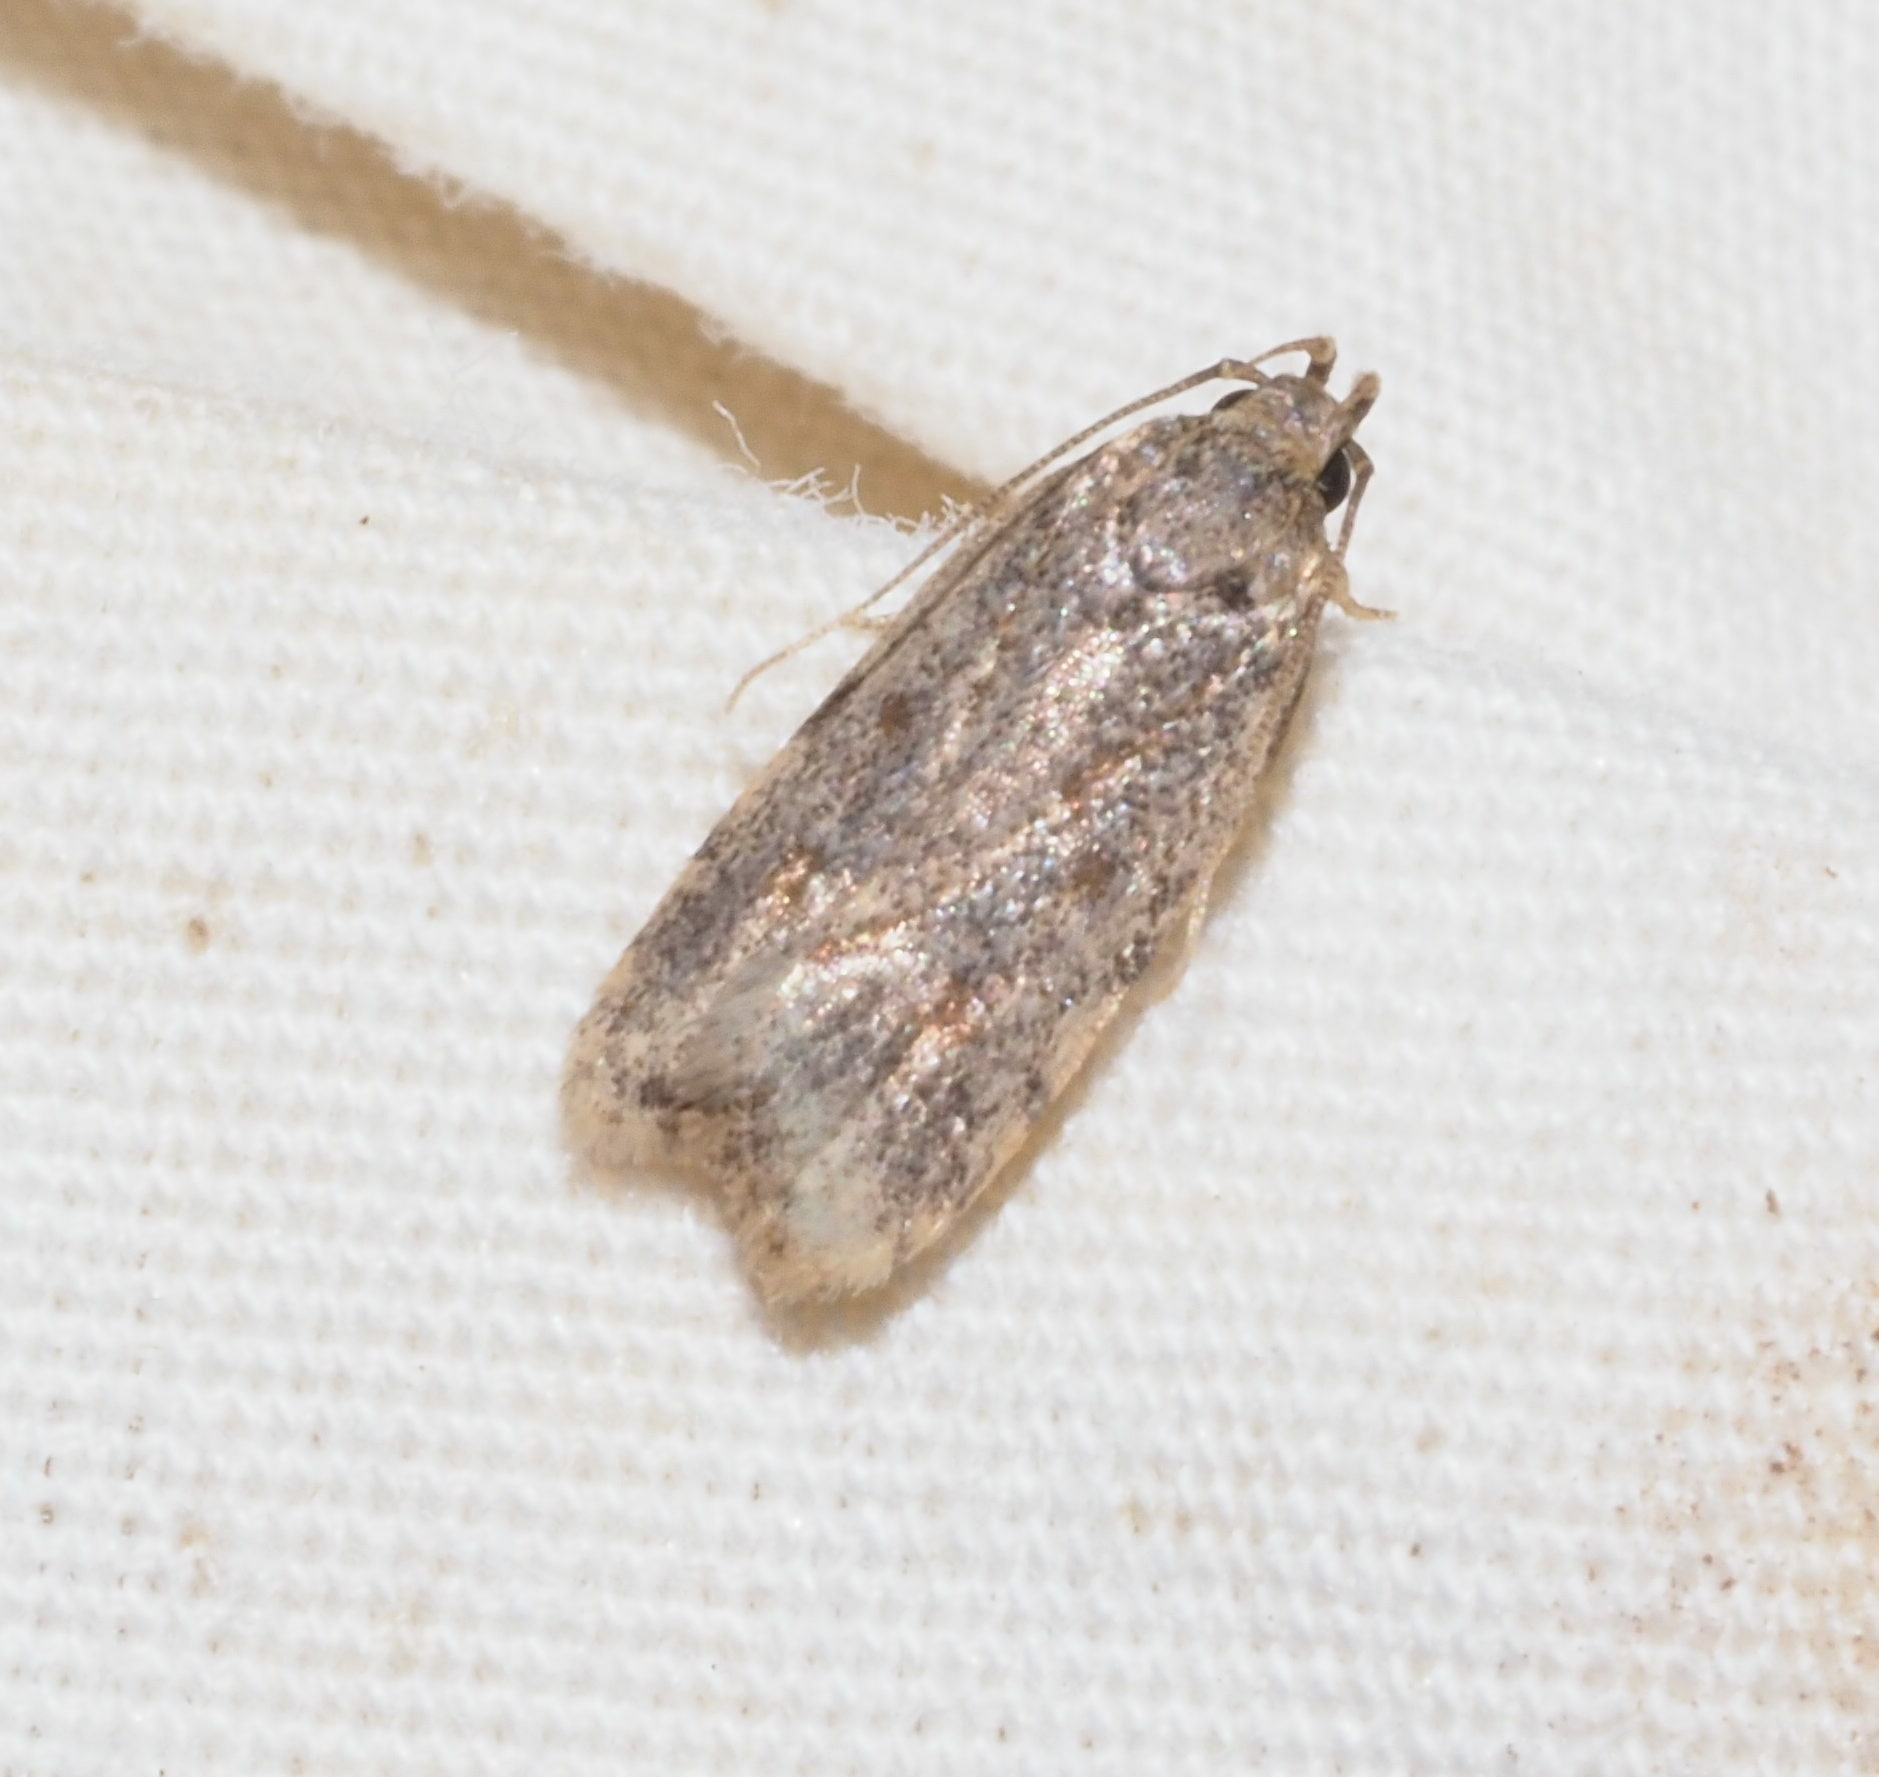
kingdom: Animalia
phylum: Arthropoda
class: Insecta
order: Lepidoptera
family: Autostichidae
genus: Stoeberhinus
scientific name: Stoeberhinus testaceus
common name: Moth
